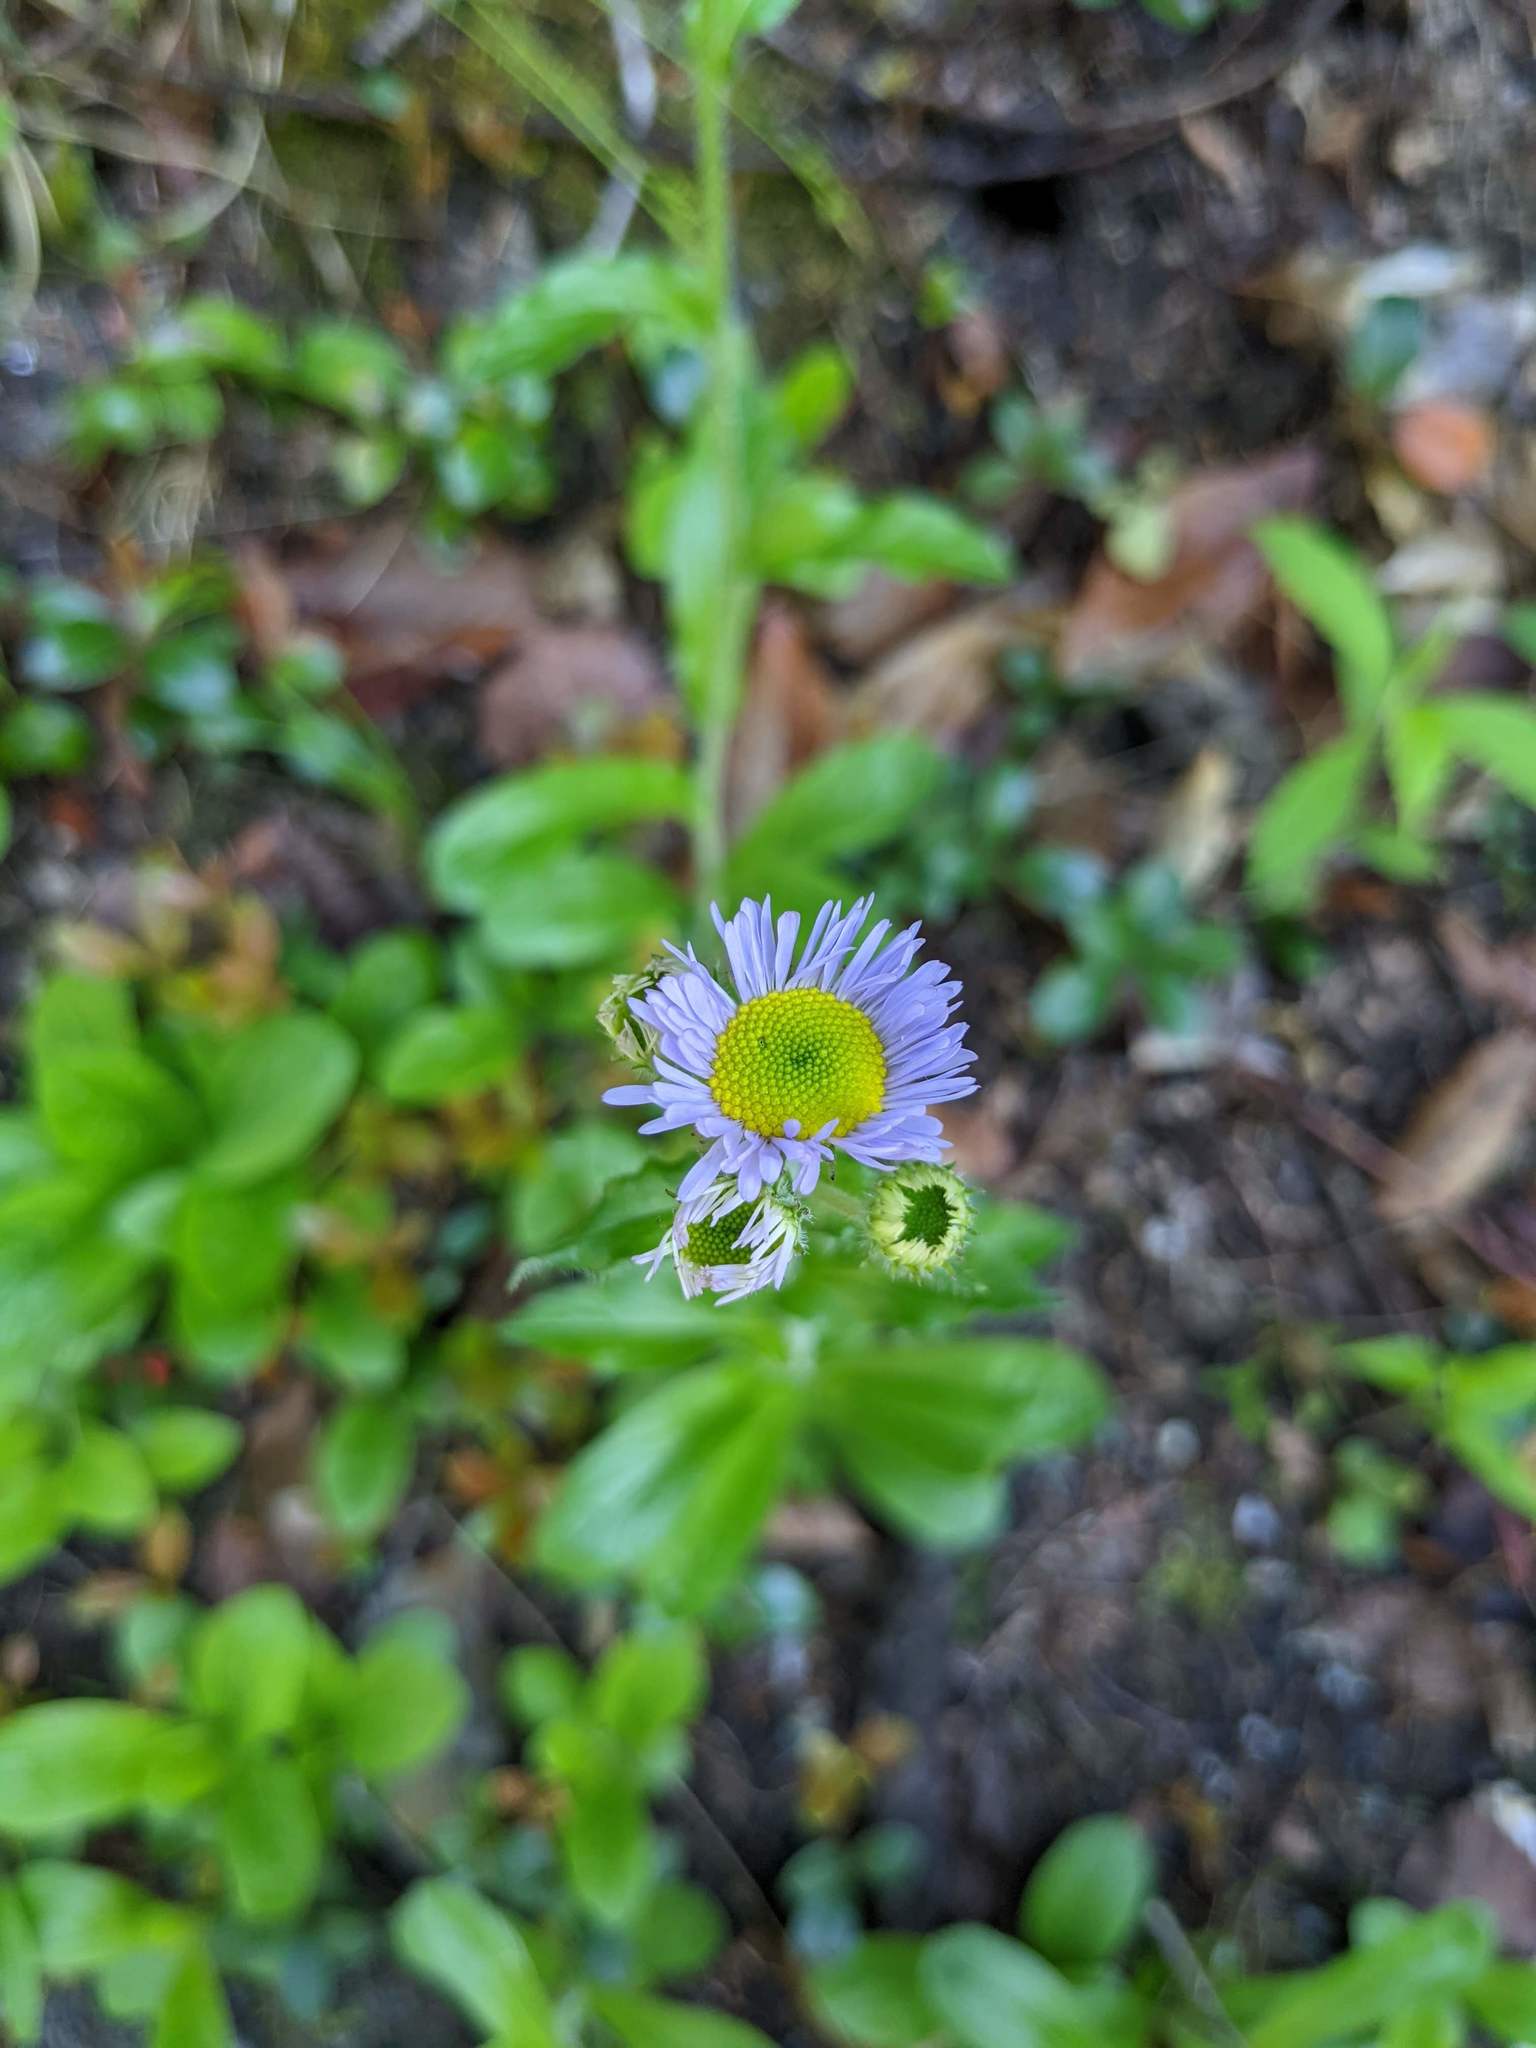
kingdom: Plantae
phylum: Tracheophyta
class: Magnoliopsida
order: Asterales
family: Asteraceae
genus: Erigeron
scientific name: Erigeron pulchellus
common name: Hairy fleabane
